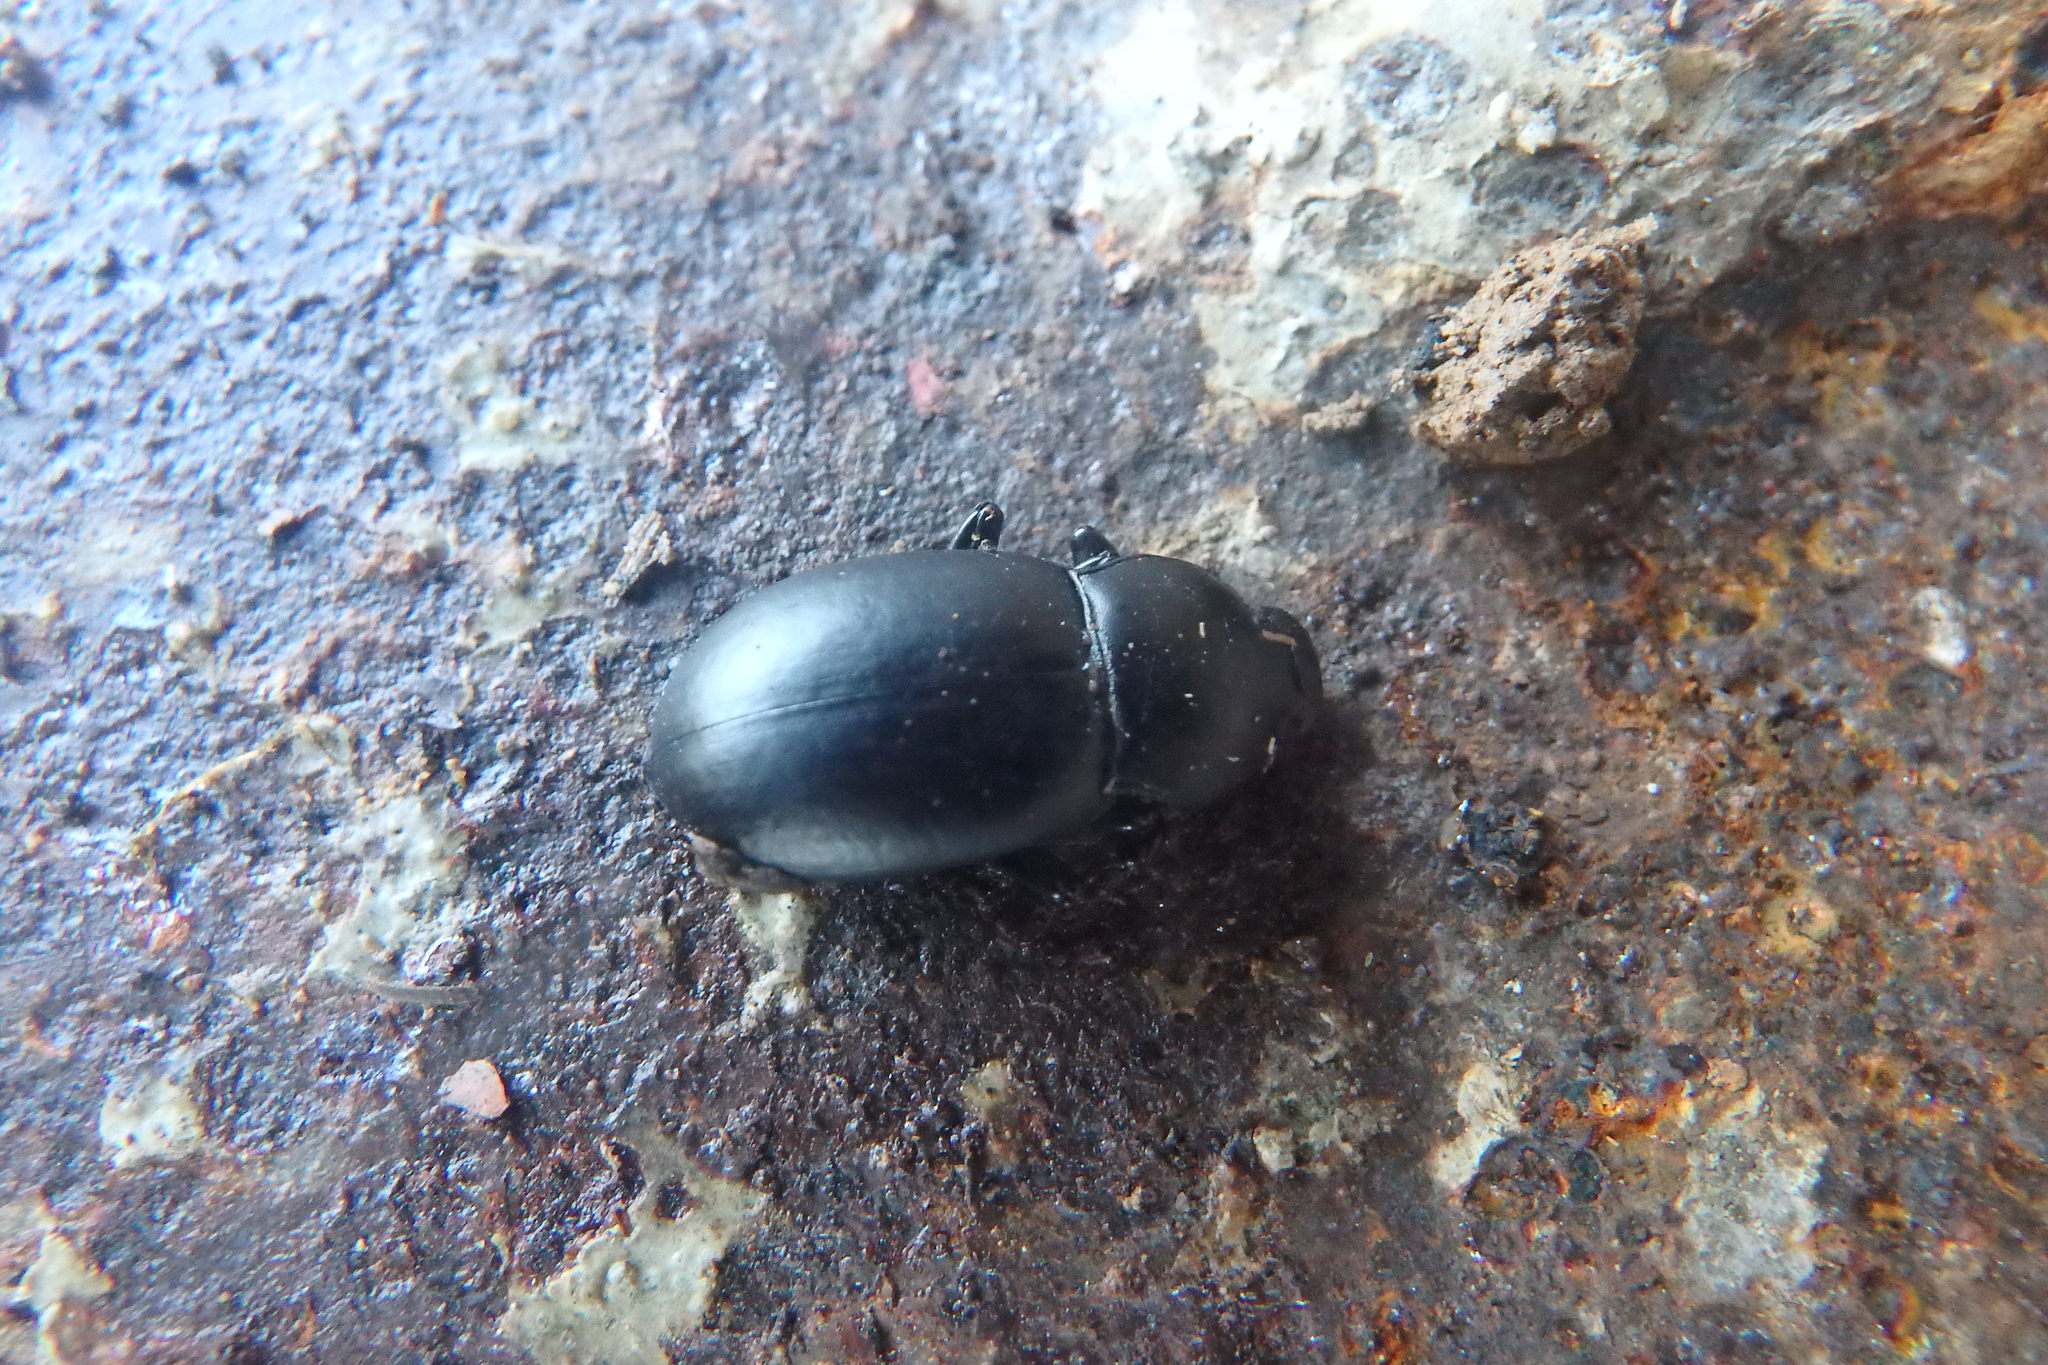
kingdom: Animalia
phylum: Arthropoda
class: Insecta
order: Coleoptera
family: Tenebrionidae
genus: Coelometopus
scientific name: Coelometopus clypeatus
